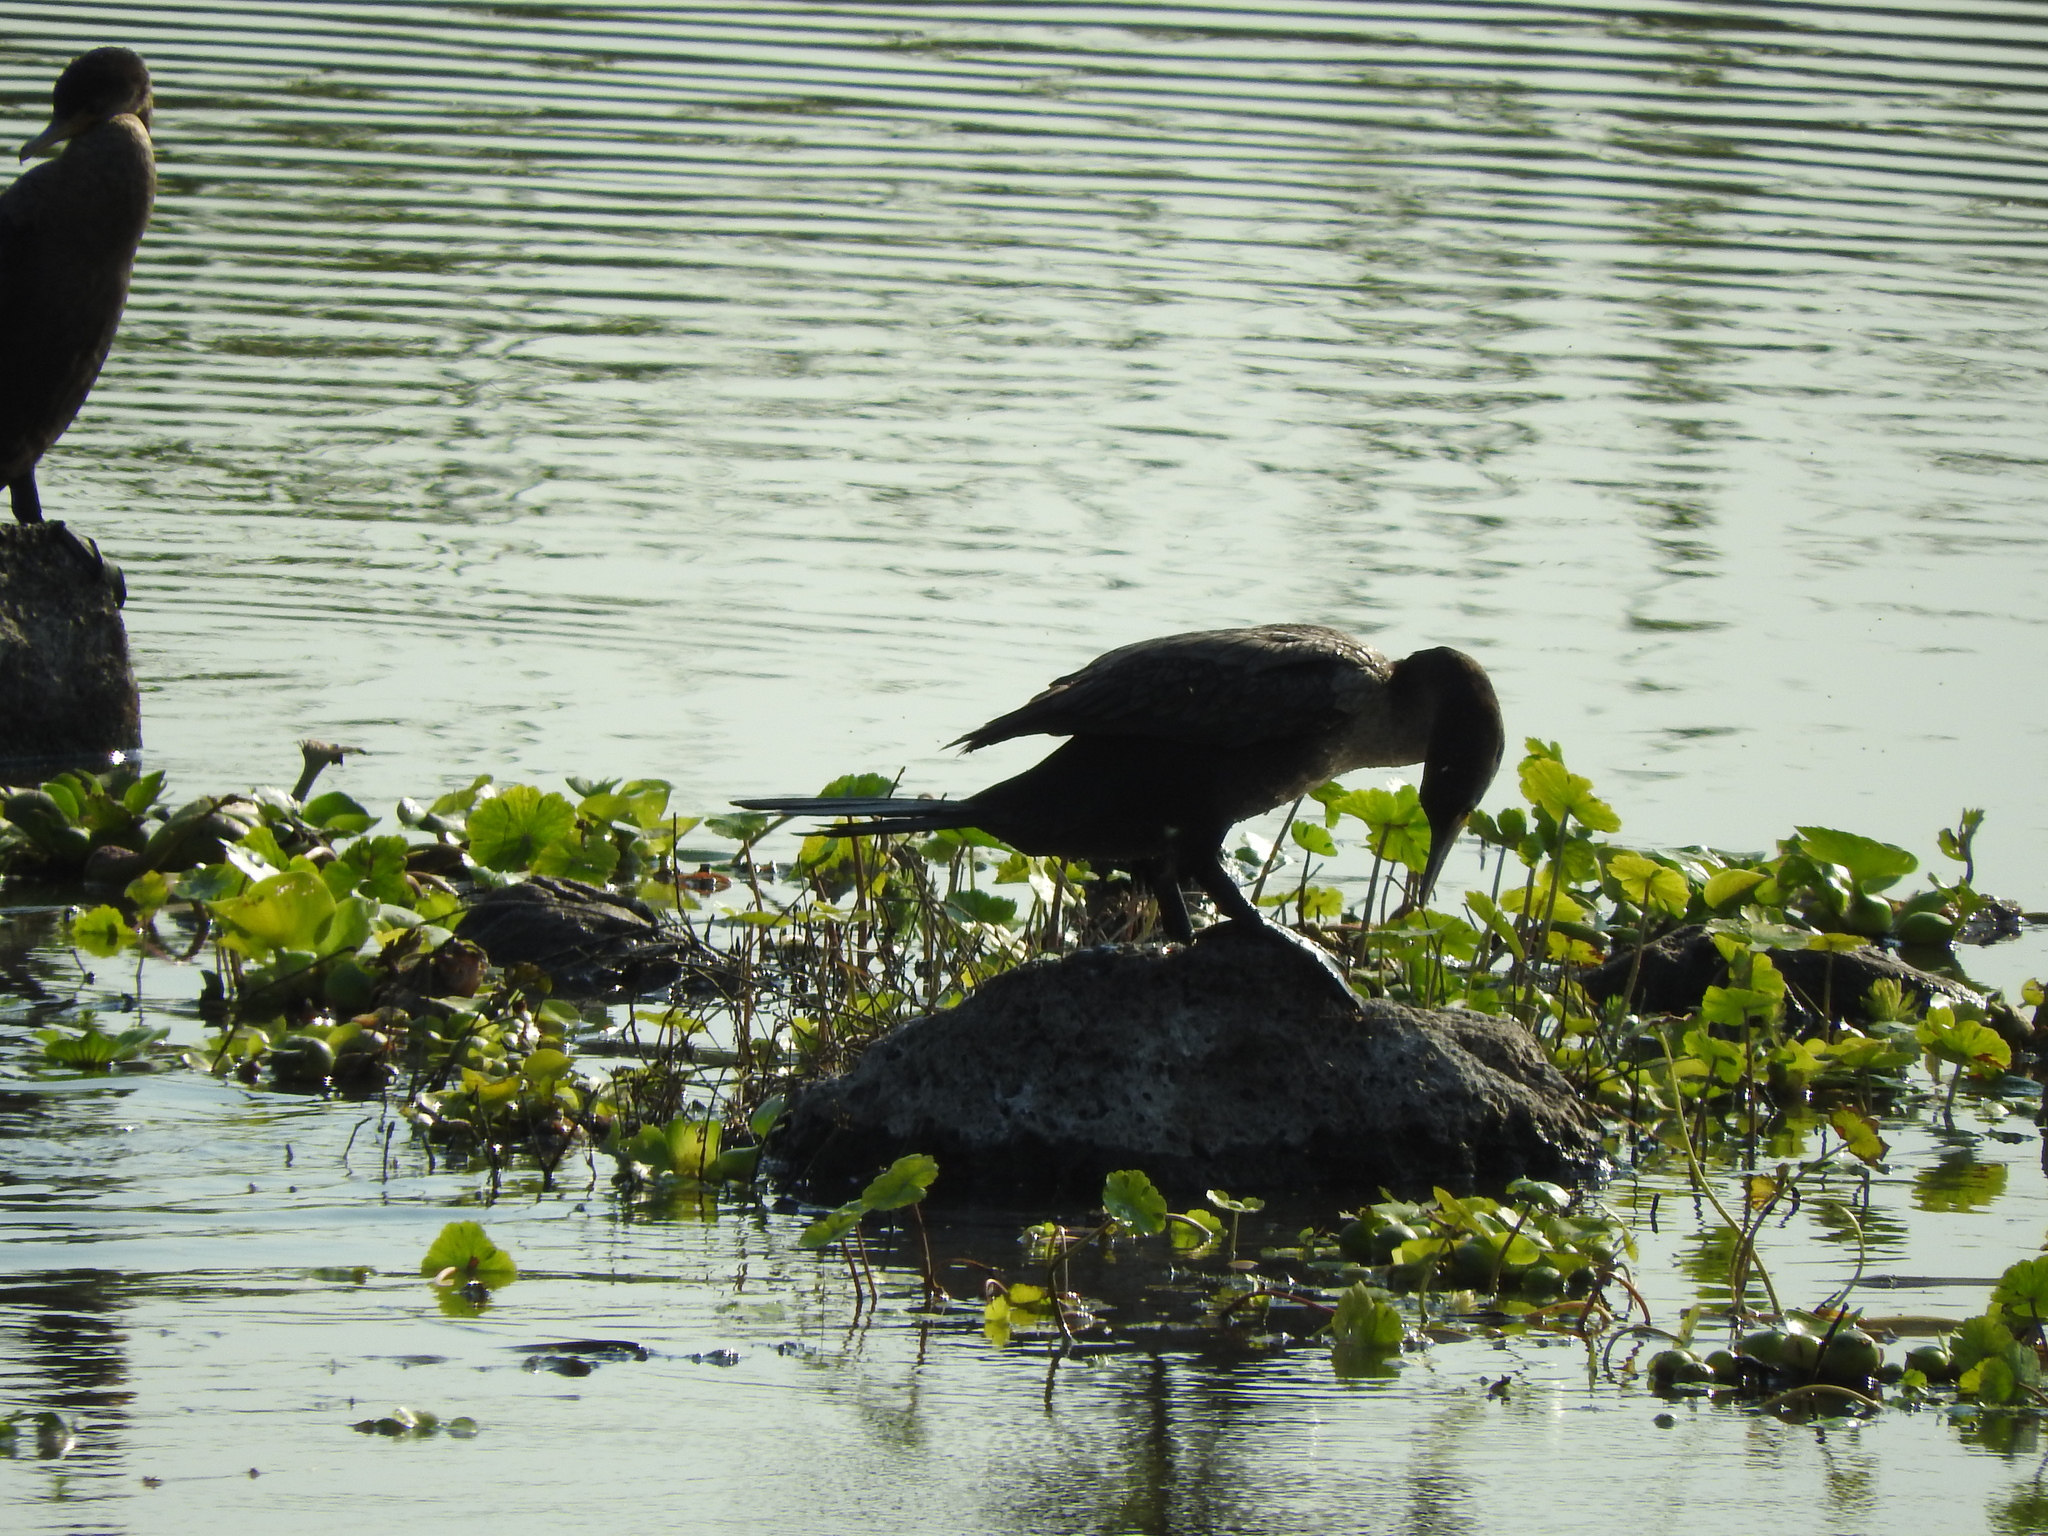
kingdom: Animalia
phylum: Chordata
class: Aves
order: Suliformes
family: Phalacrocoracidae
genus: Phalacrocorax
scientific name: Phalacrocorax brasilianus
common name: Neotropic cormorant
